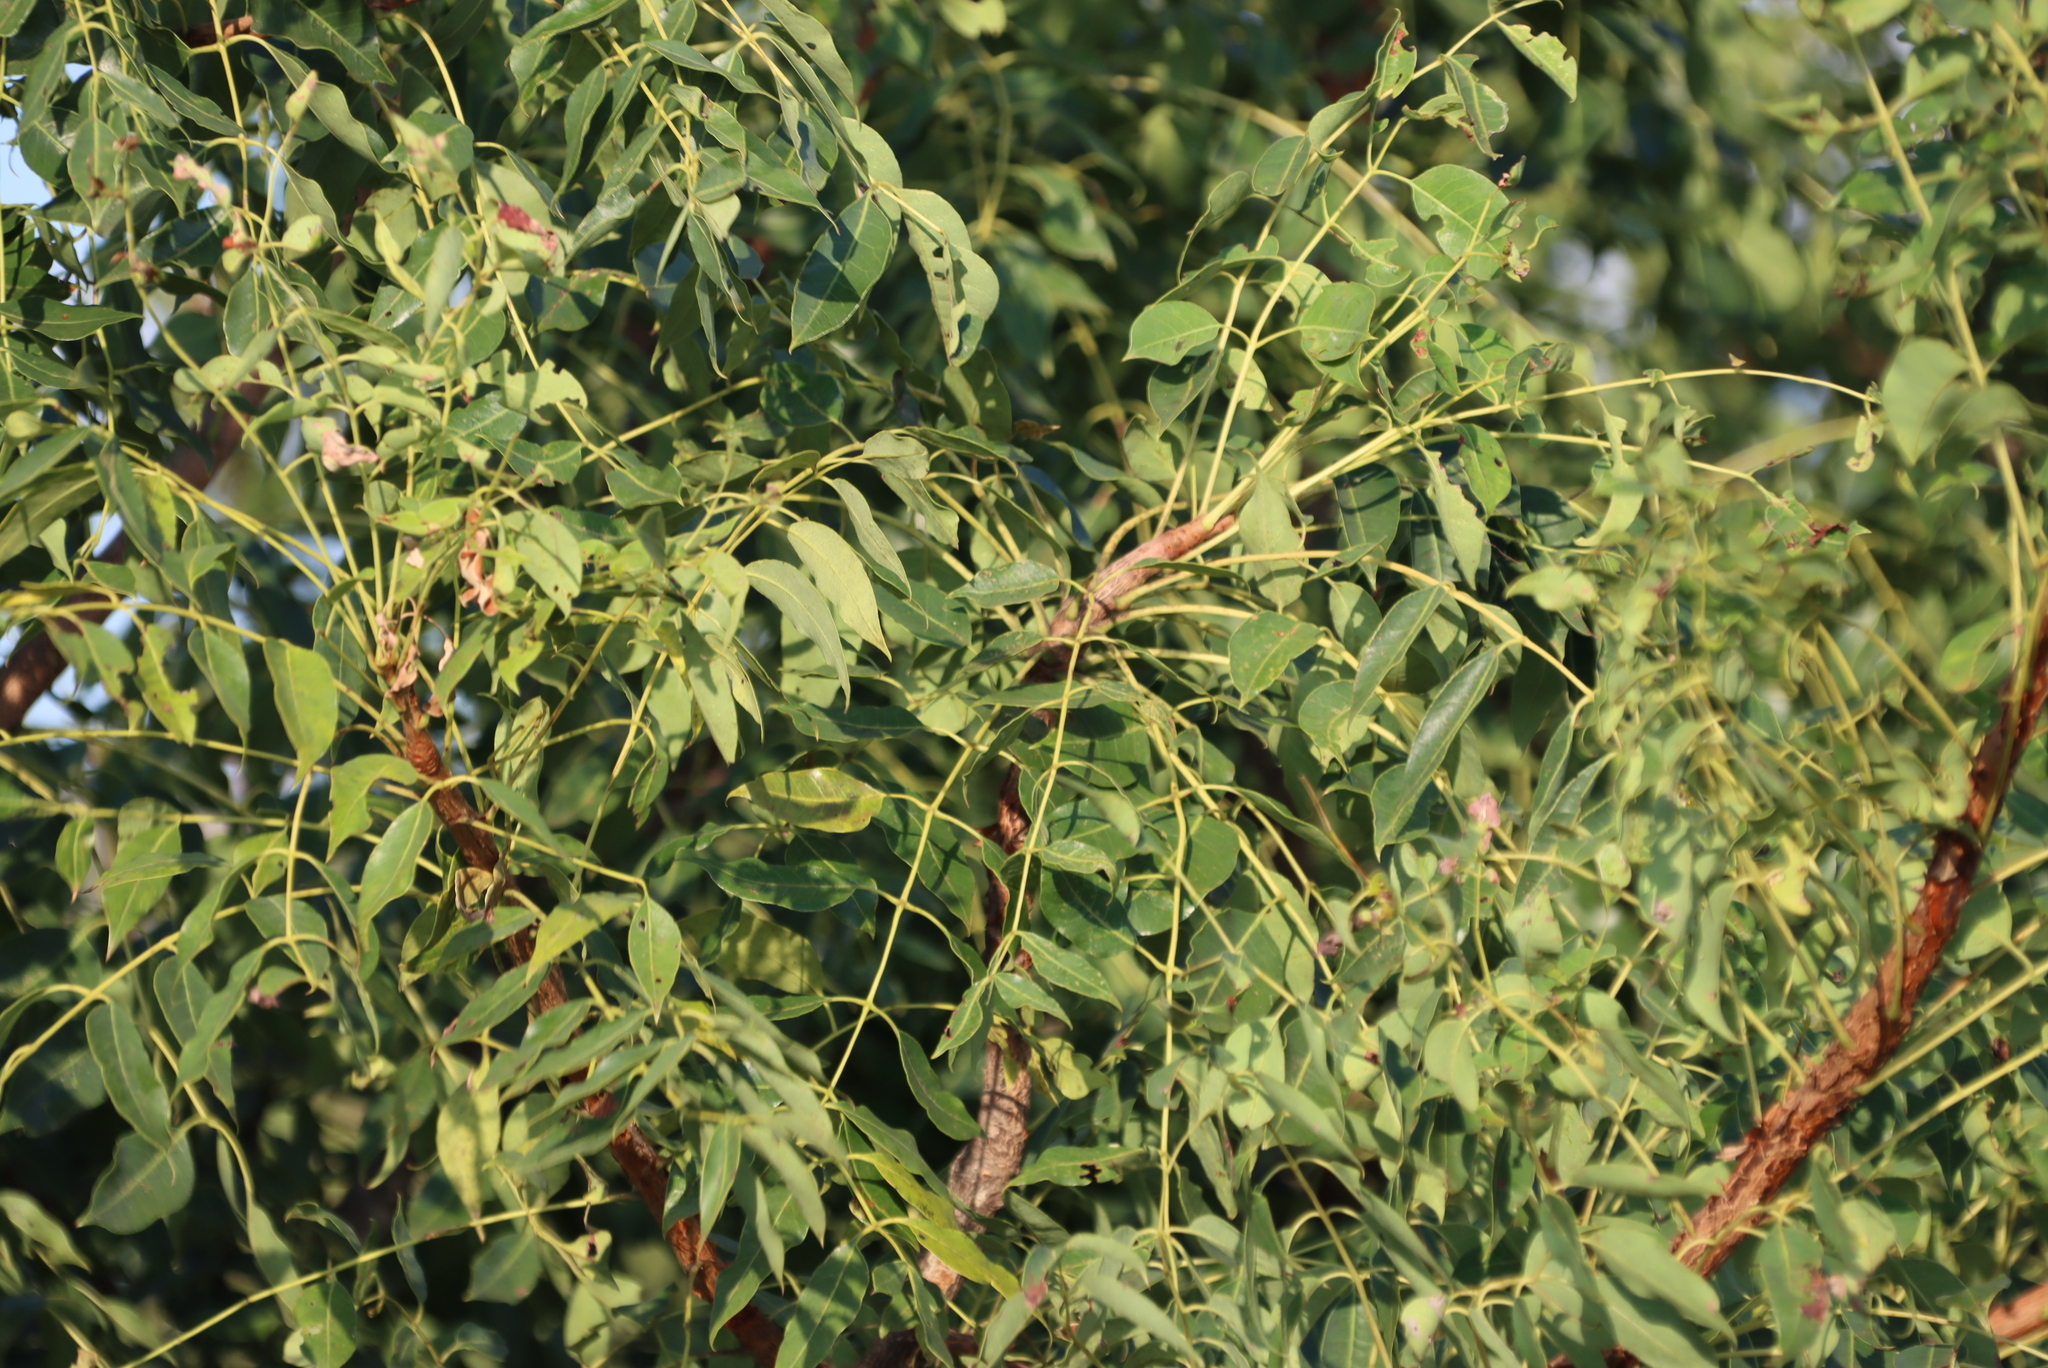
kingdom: Plantae
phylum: Tracheophyta
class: Magnoliopsida
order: Sapindales
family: Anacardiaceae
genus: Sclerocarya
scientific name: Sclerocarya birrea
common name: Marula
